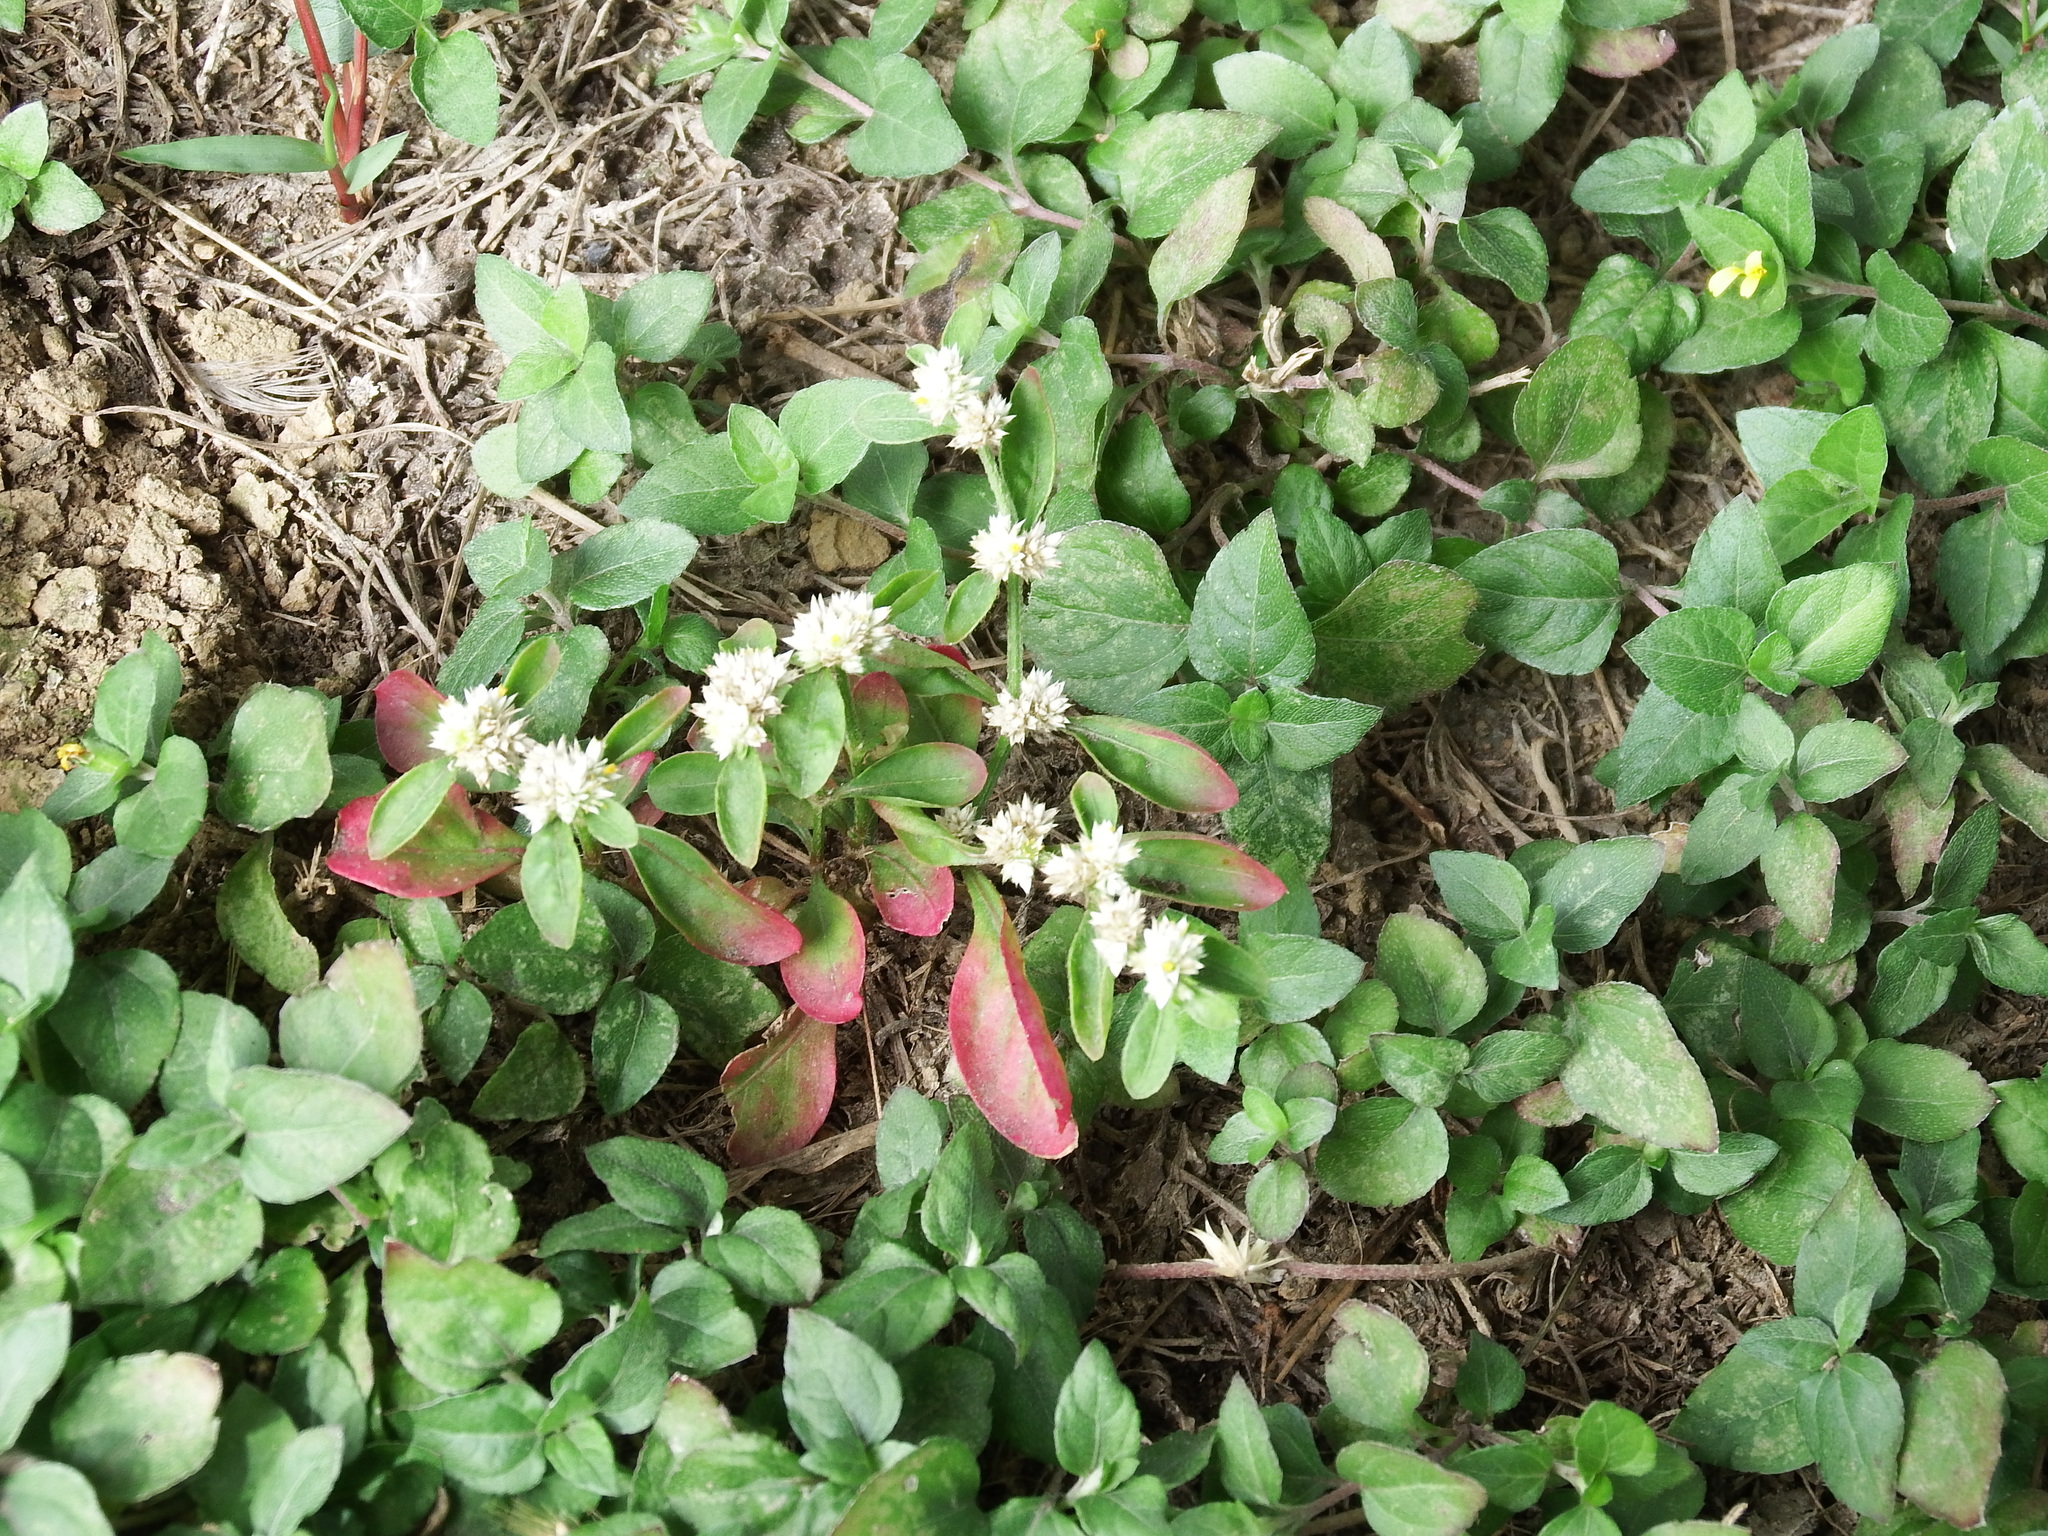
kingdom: Plantae
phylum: Tracheophyta
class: Magnoliopsida
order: Caryophyllales
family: Amaranthaceae
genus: Alternanthera
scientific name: Alternanthera bettzickiana
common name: Calico-plant
